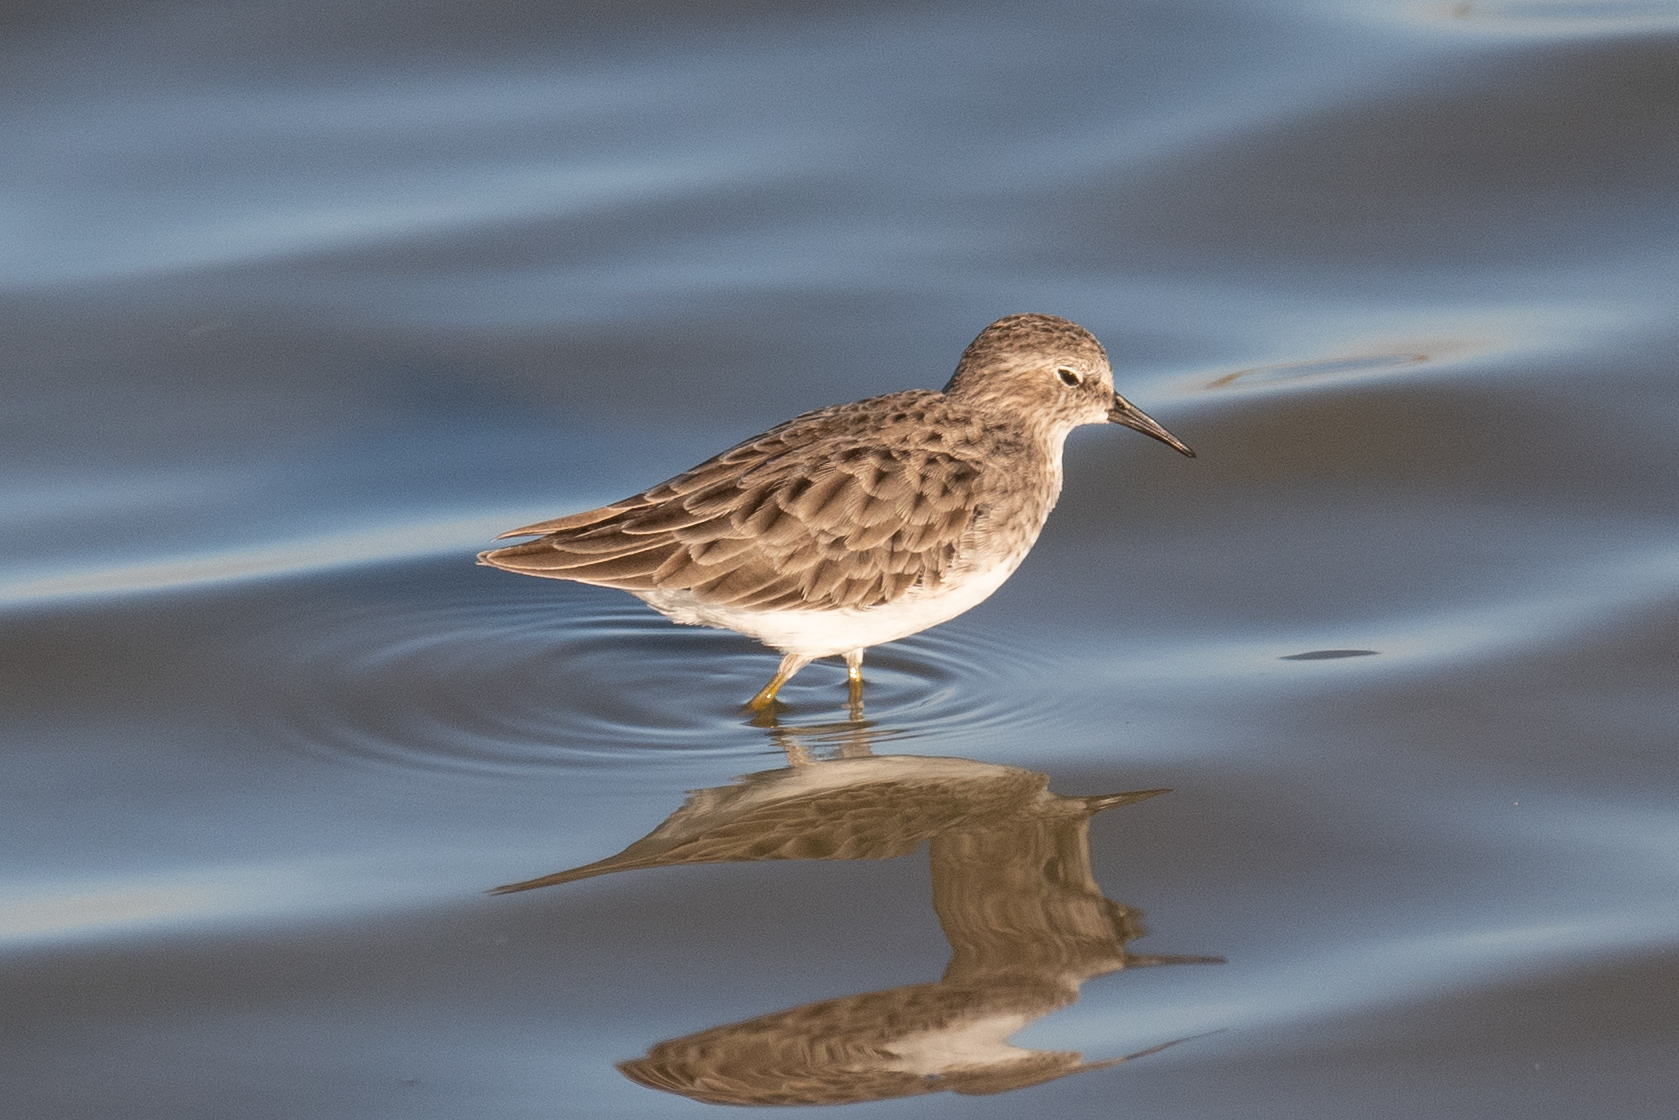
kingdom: Animalia
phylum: Chordata
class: Aves
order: Charadriiformes
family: Scolopacidae
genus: Calidris
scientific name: Calidris minutilla
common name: Least sandpiper
